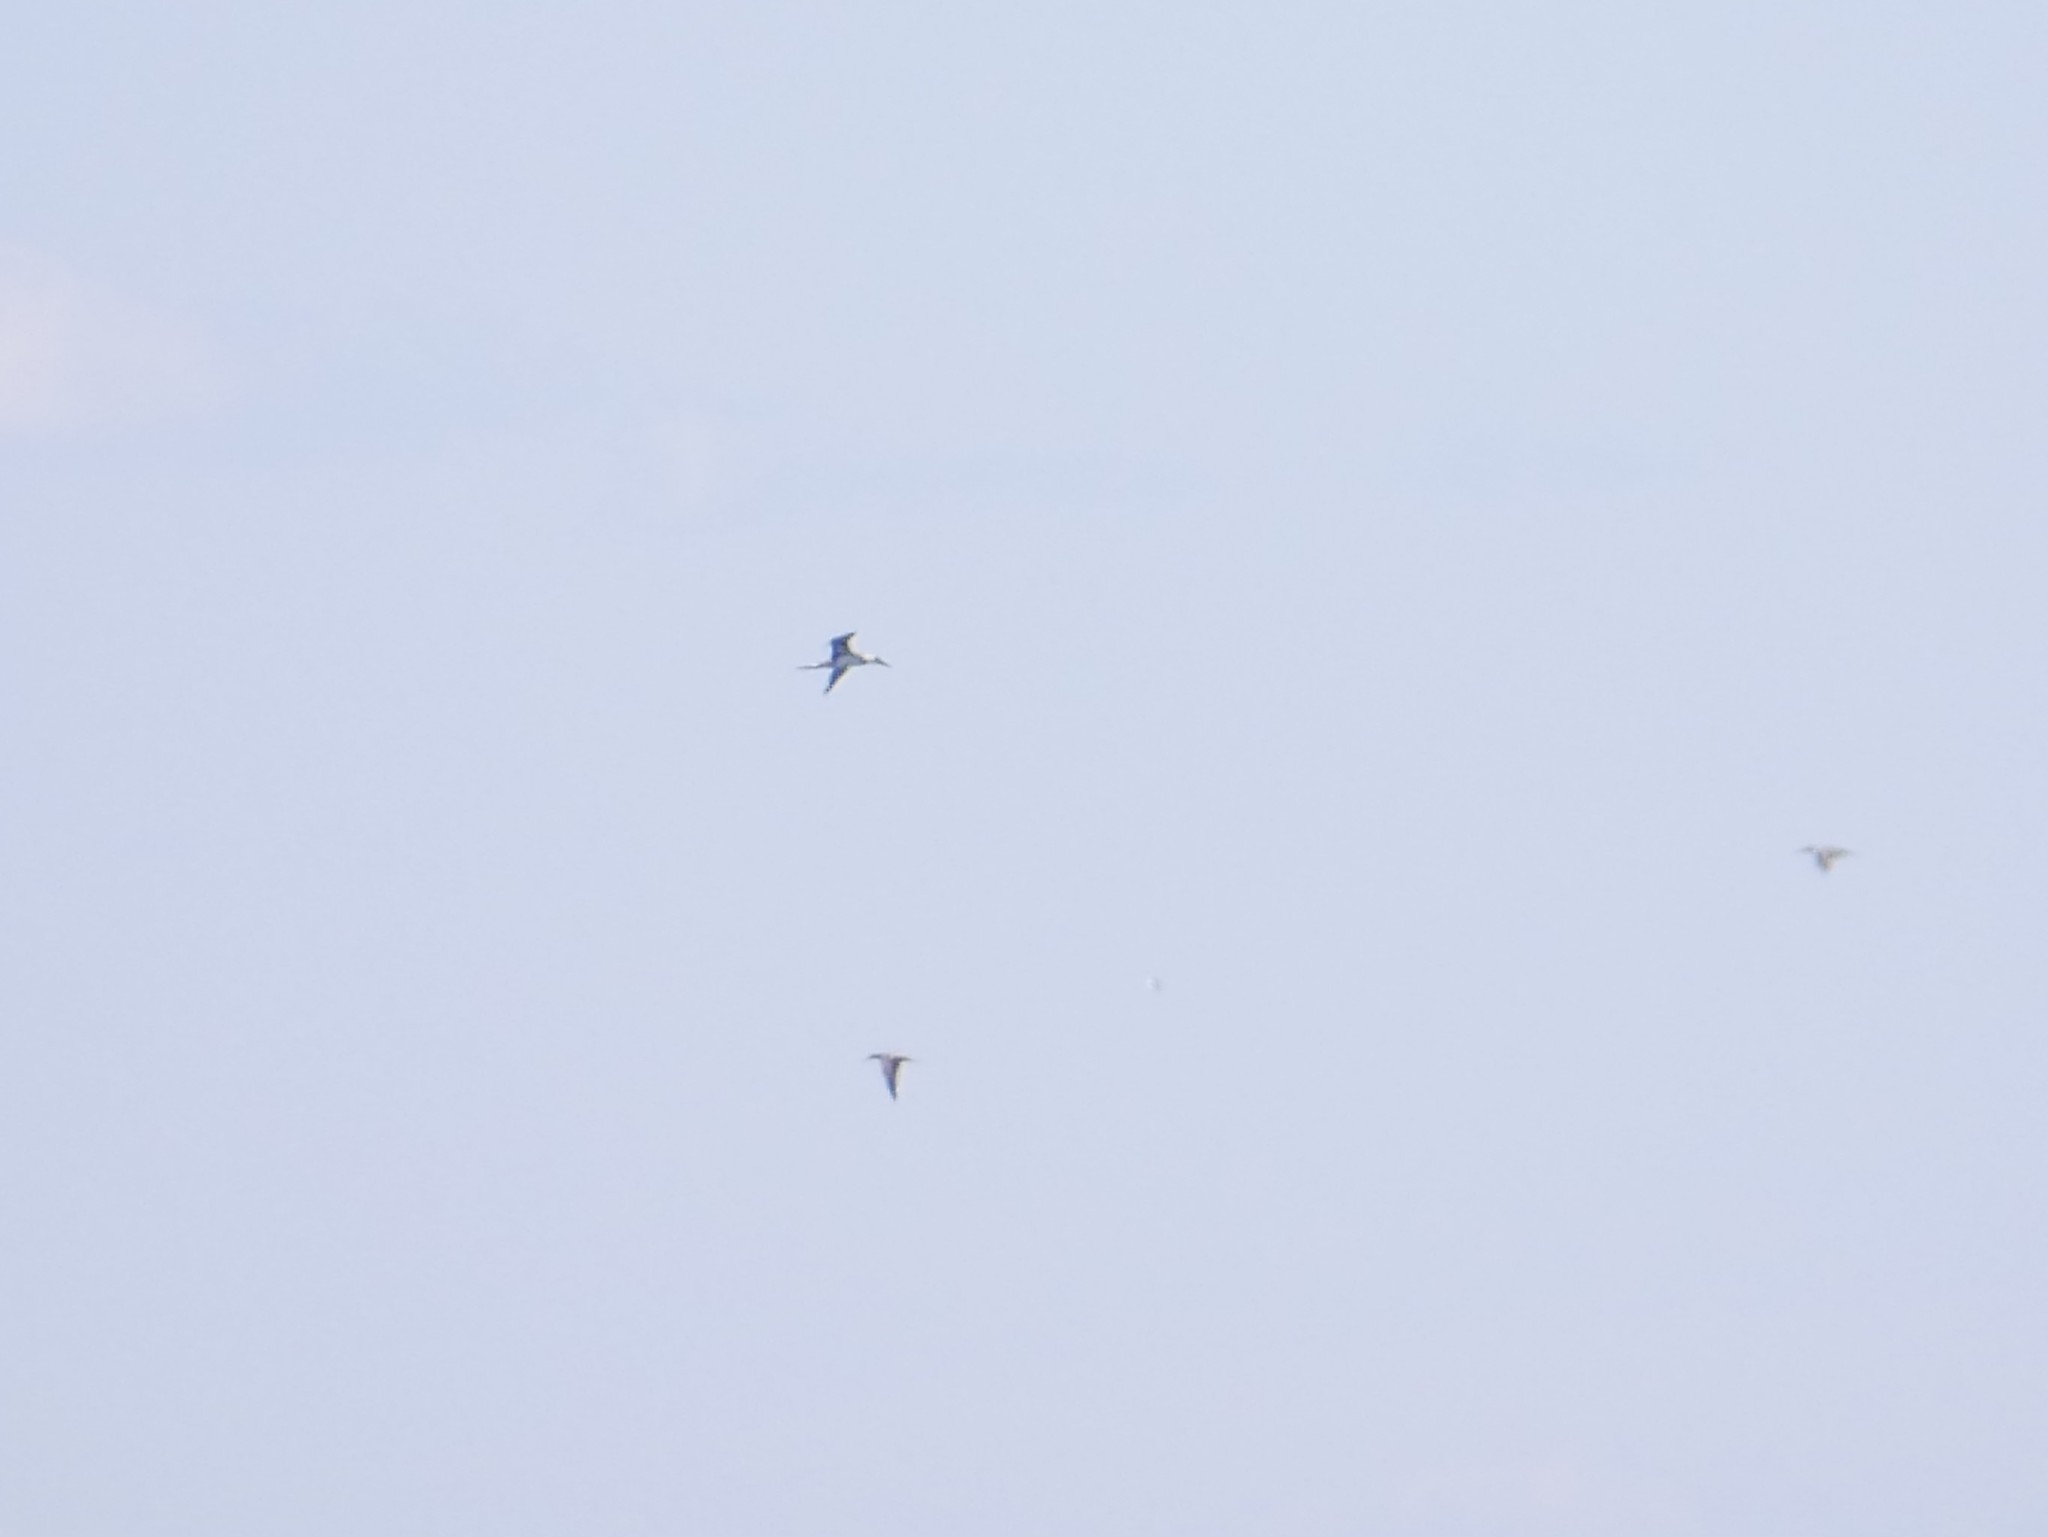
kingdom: Animalia
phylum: Chordata
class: Aves
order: Suliformes
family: Sulidae
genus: Morus
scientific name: Morus bassanus
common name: Northern gannet
